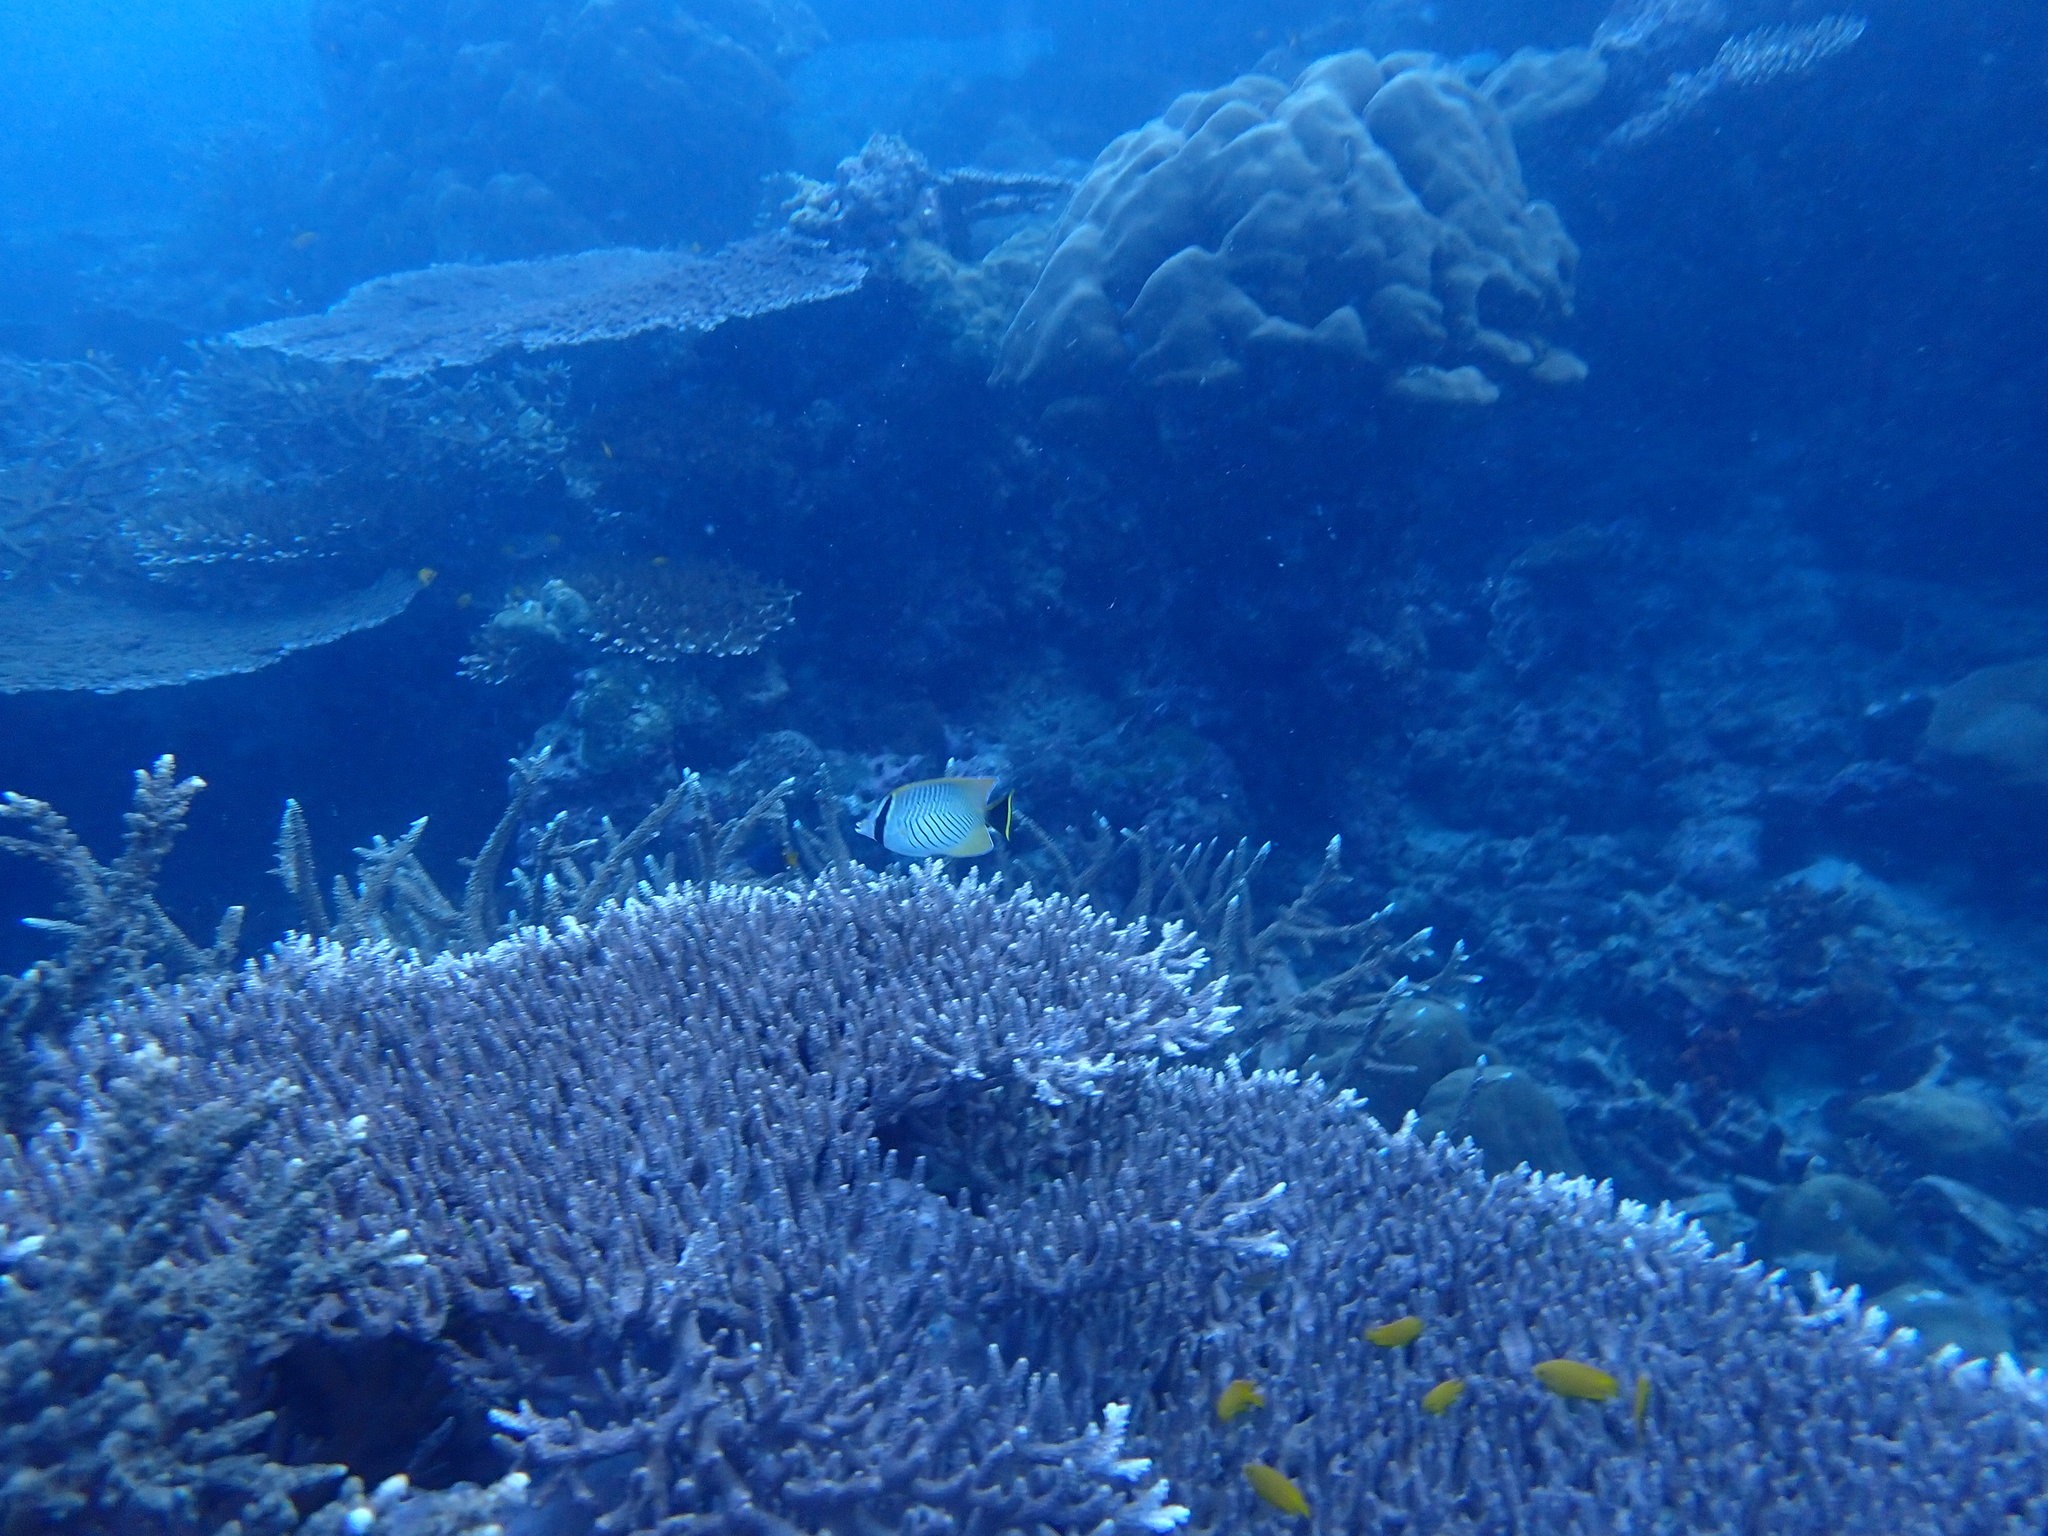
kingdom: Animalia
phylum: Chordata
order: Perciformes
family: Chaetodontidae
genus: Chaetodon
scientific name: Chaetodon trifascialis
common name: Chevroned butterflyfish
